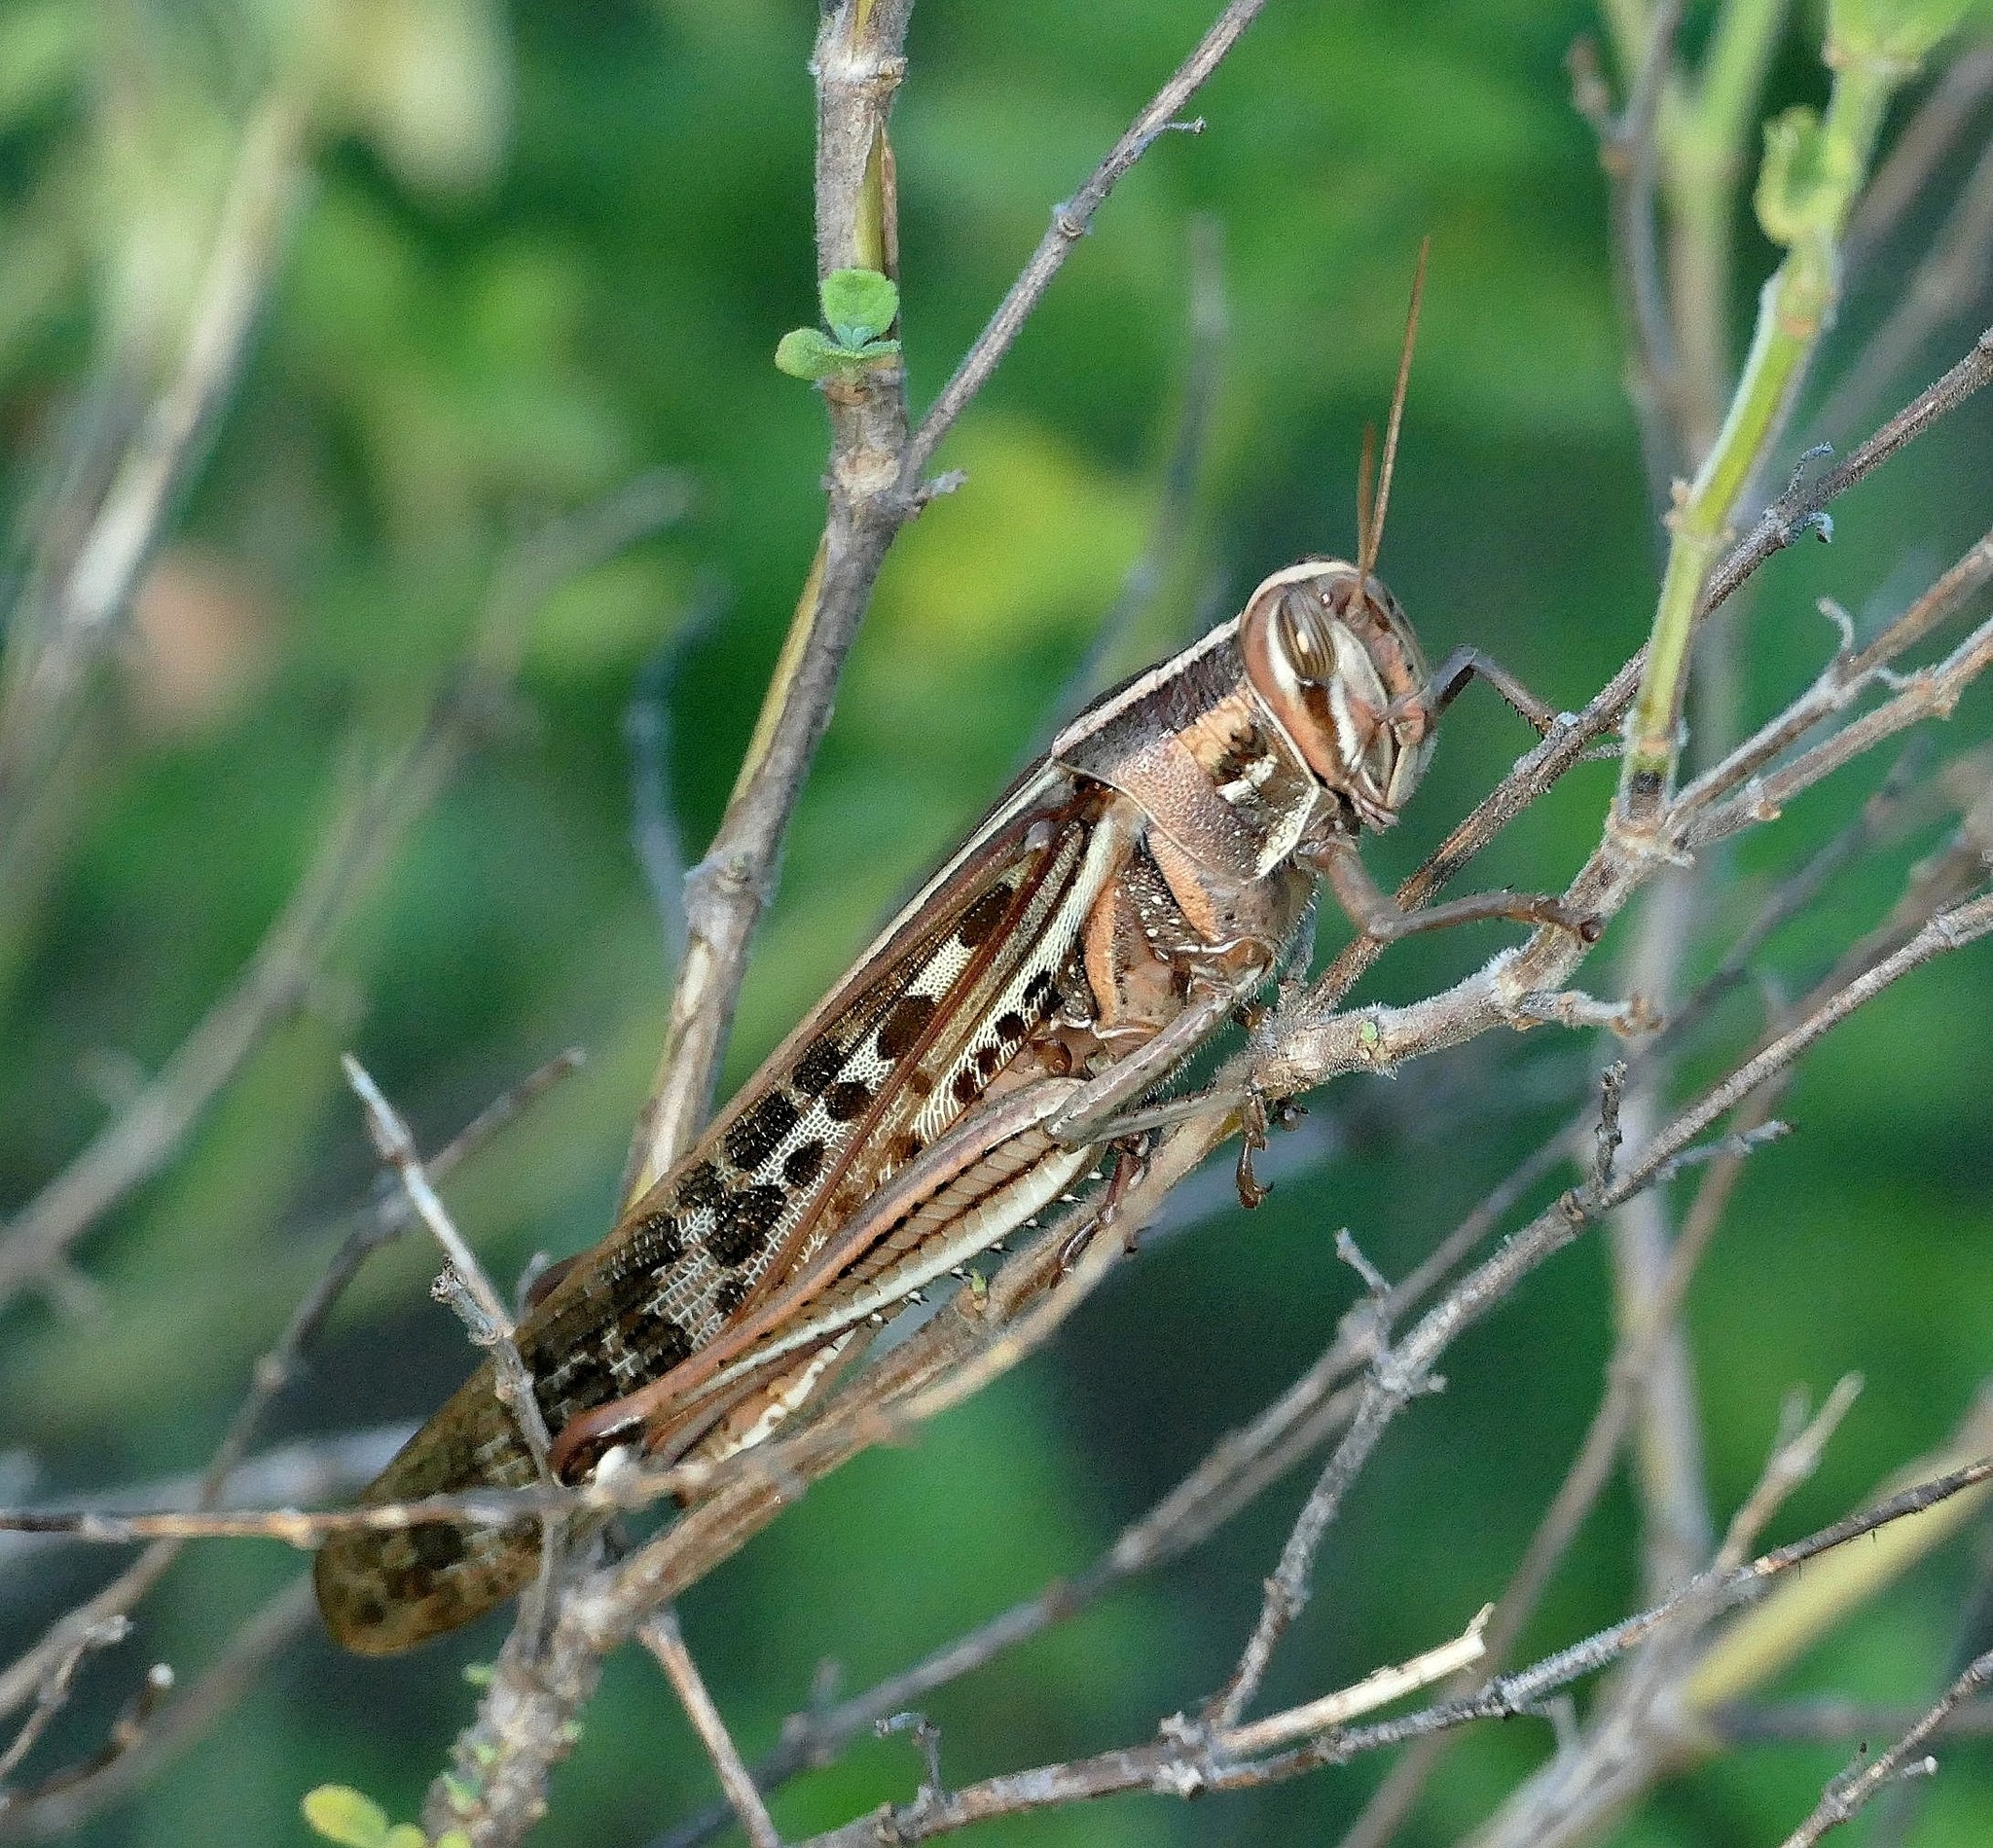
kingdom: Animalia
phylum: Arthropoda
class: Insecta
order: Orthoptera
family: Acrididae
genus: Schistocerca
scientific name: Schistocerca americana
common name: American bird locust
